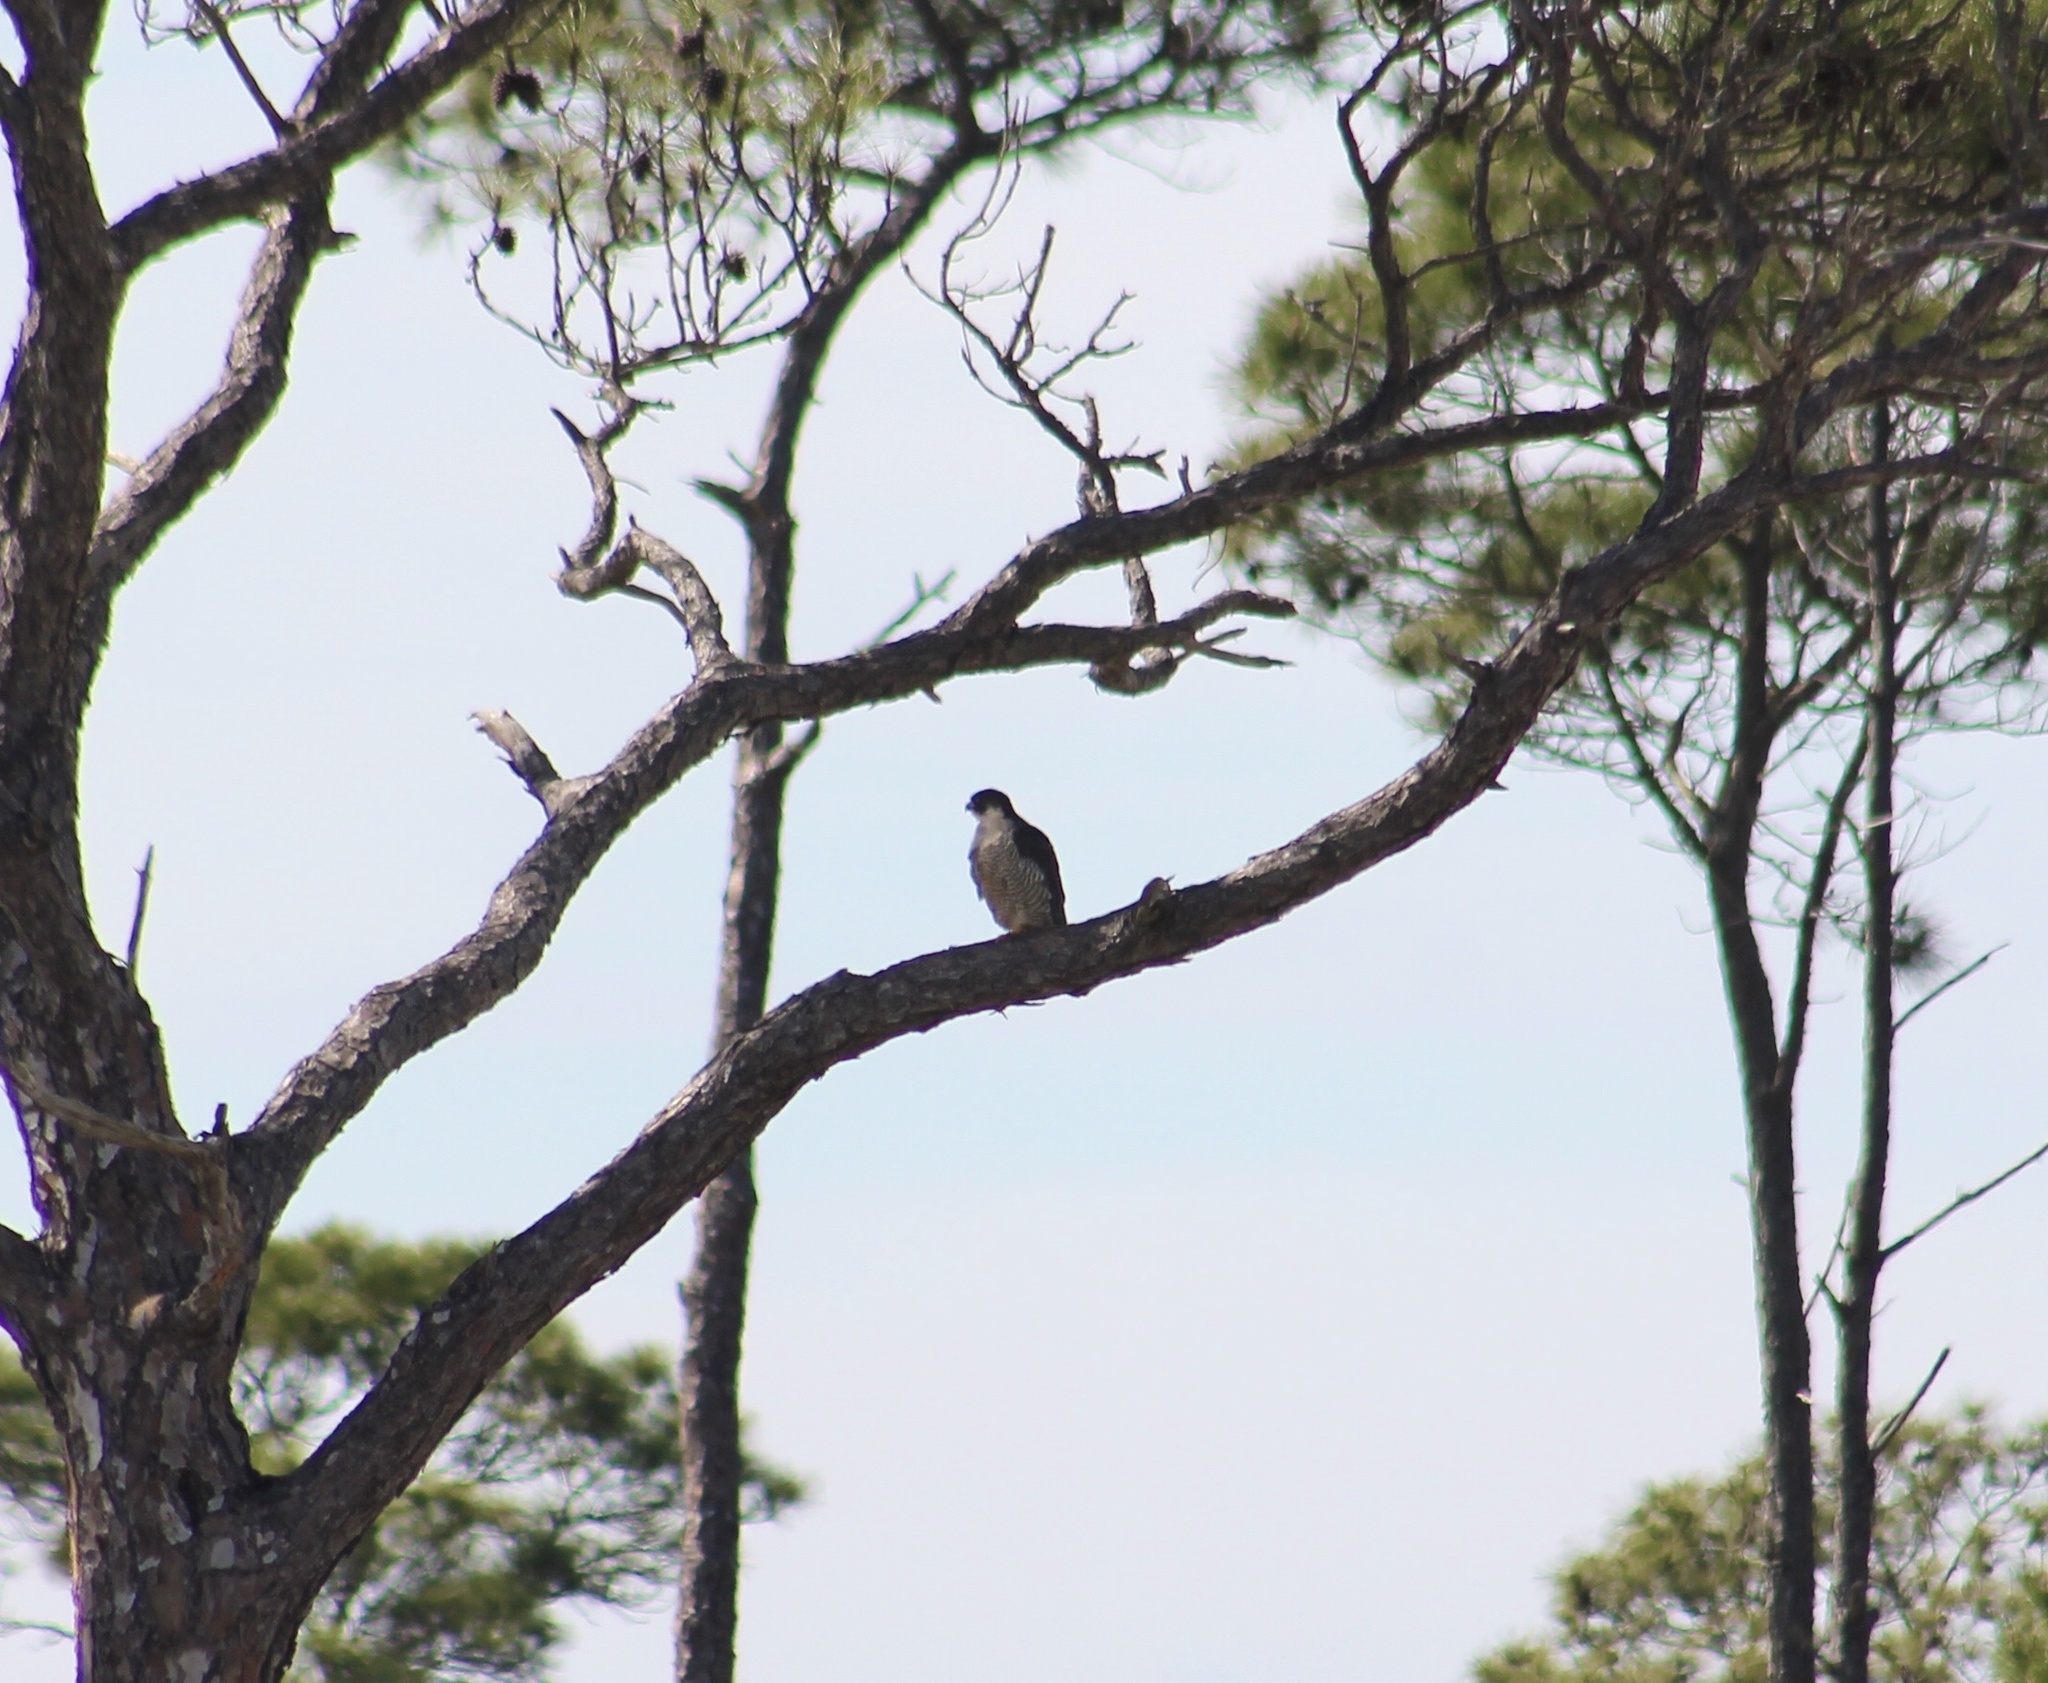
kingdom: Animalia
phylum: Chordata
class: Aves
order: Falconiformes
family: Falconidae
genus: Falco
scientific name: Falco peregrinus
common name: Peregrine falcon
